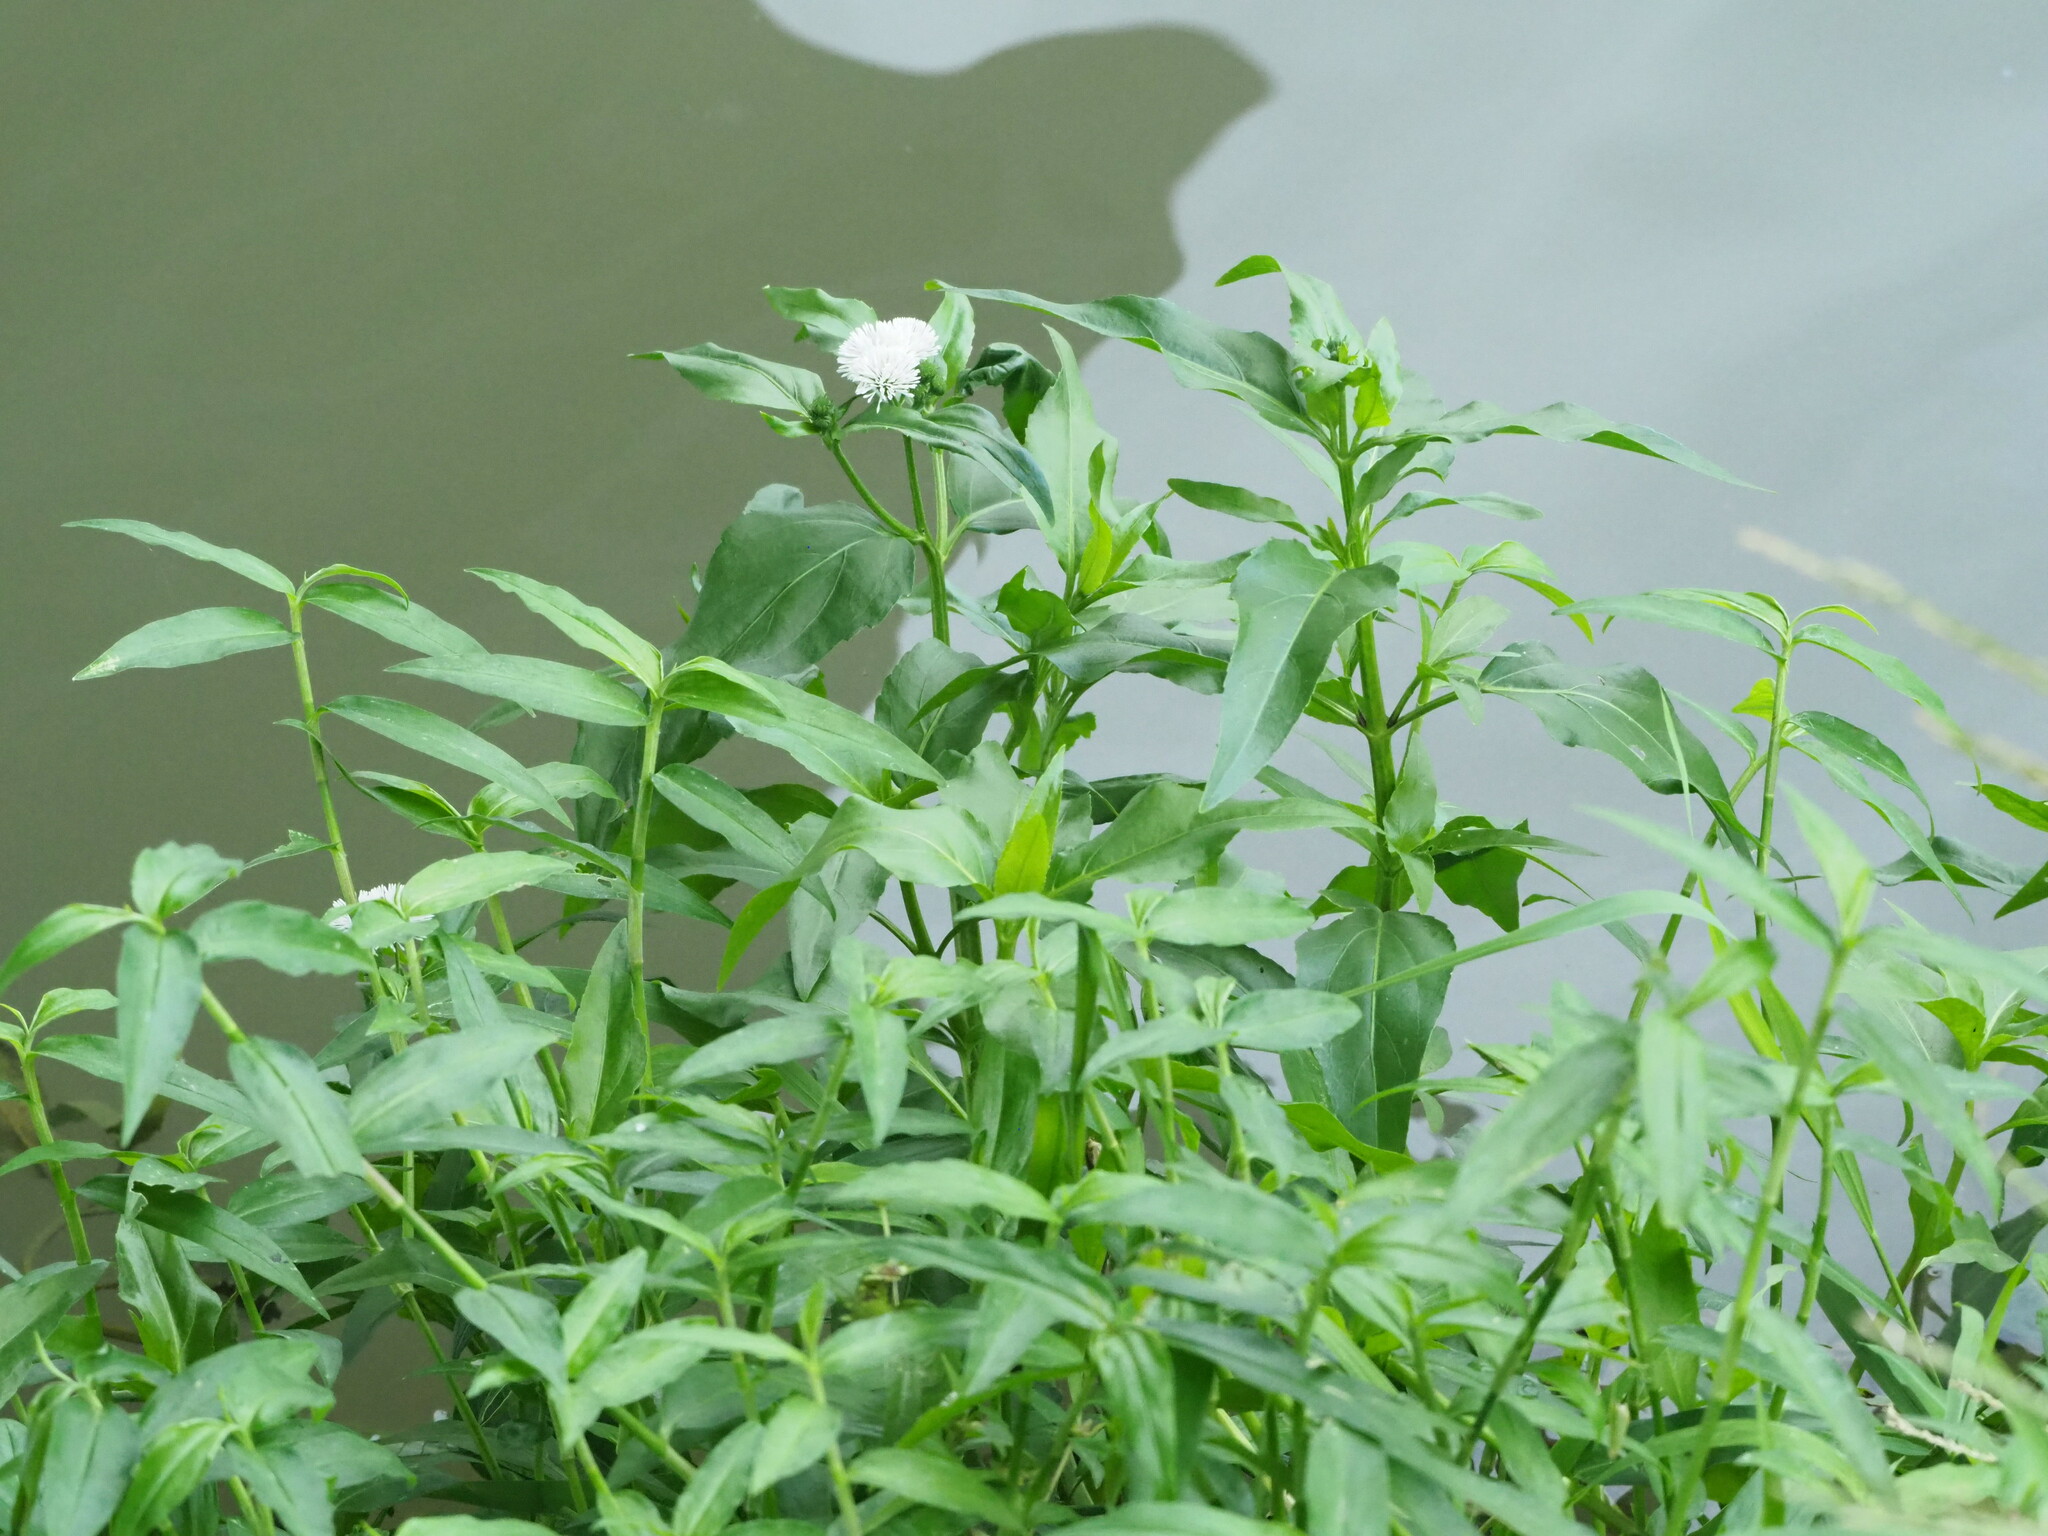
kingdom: Plantae
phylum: Tracheophyta
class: Magnoliopsida
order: Asterales
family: Asteraceae
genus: Gymnocoronis
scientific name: Gymnocoronis spilanthoides
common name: Senegal teaplant
